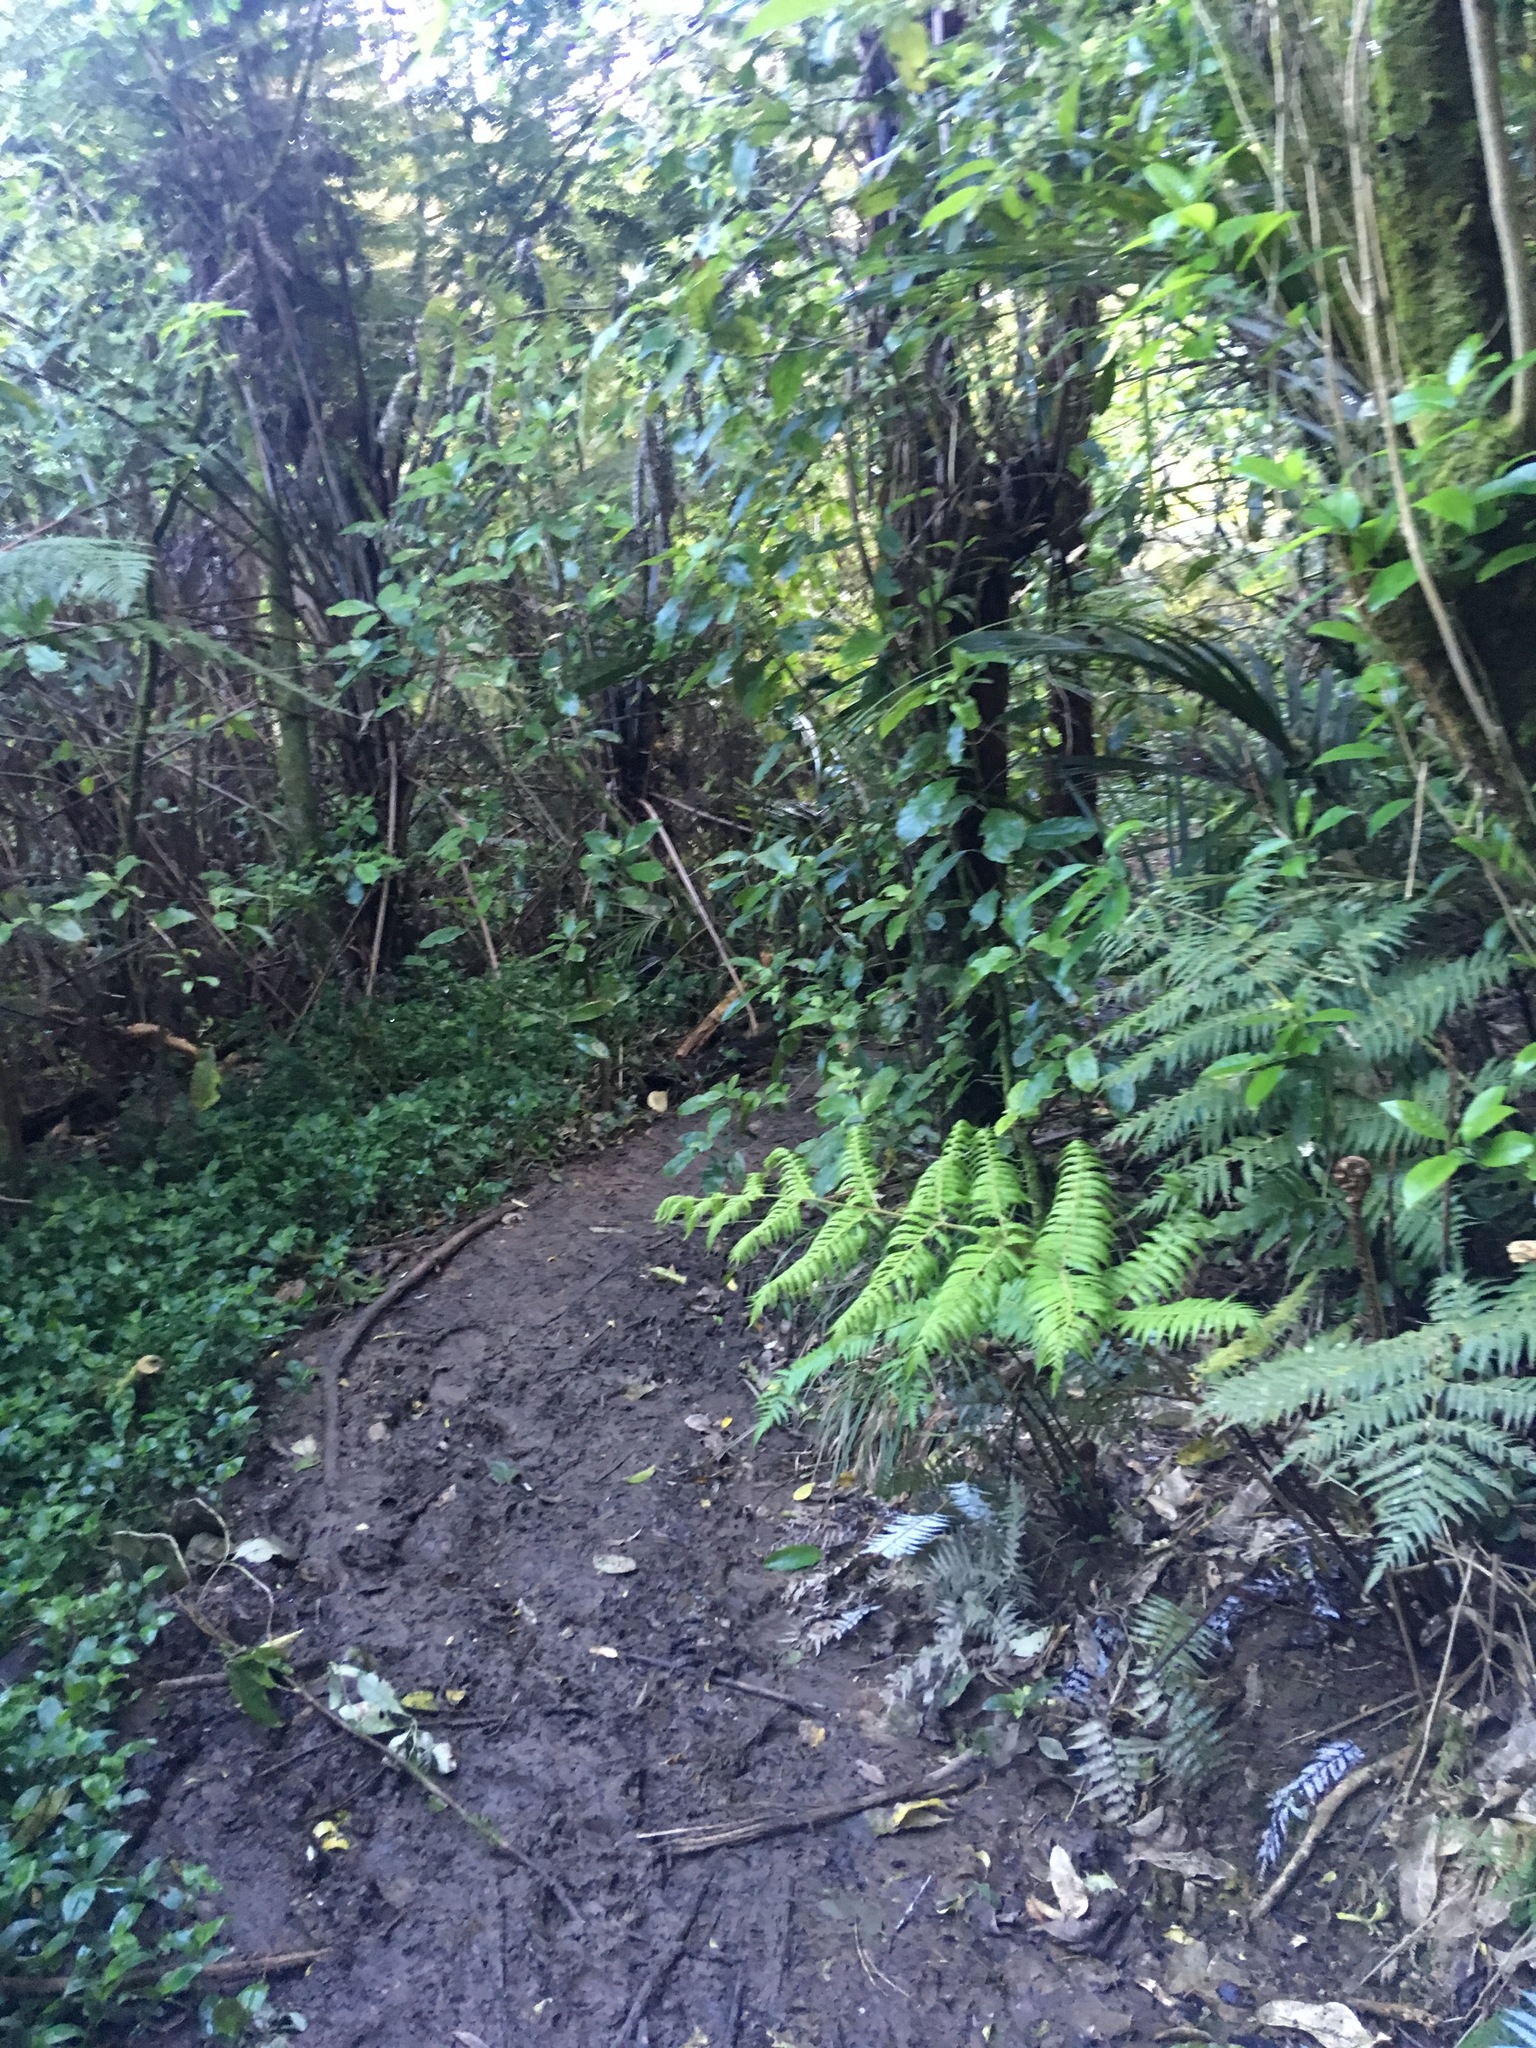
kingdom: Plantae
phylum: Tracheophyta
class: Liliopsida
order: Commelinales
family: Commelinaceae
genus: Tradescantia
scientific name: Tradescantia fluminensis
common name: Wandering-jew
